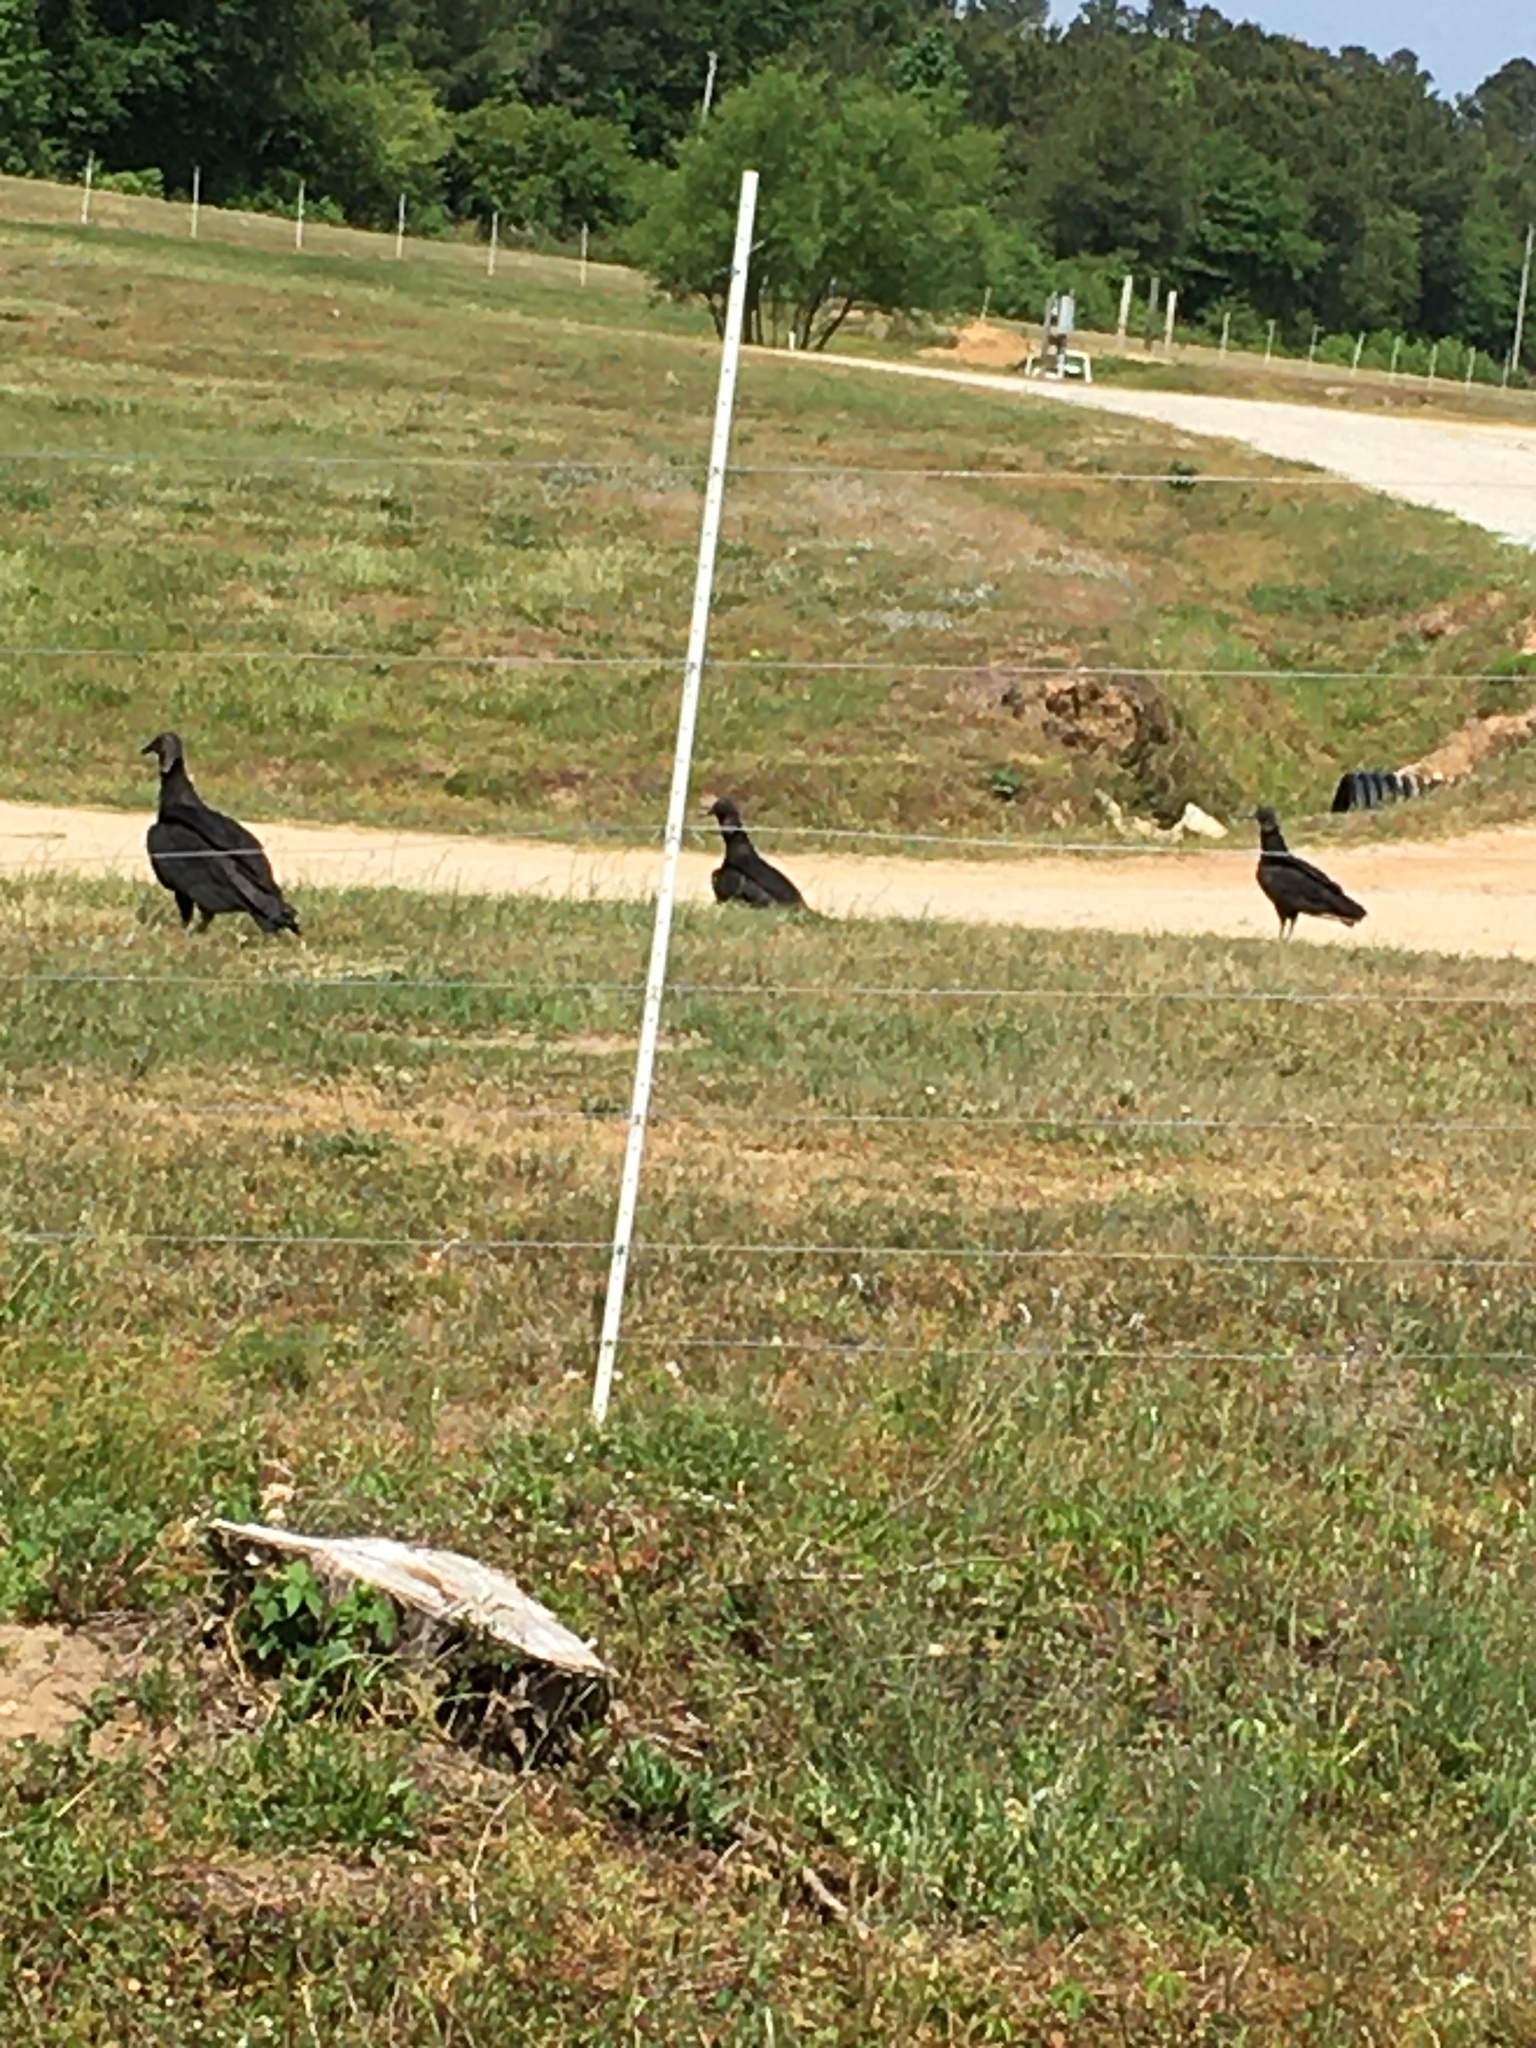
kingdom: Animalia
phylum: Chordata
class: Aves
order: Accipitriformes
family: Cathartidae
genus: Coragyps
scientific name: Coragyps atratus
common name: Black vulture
